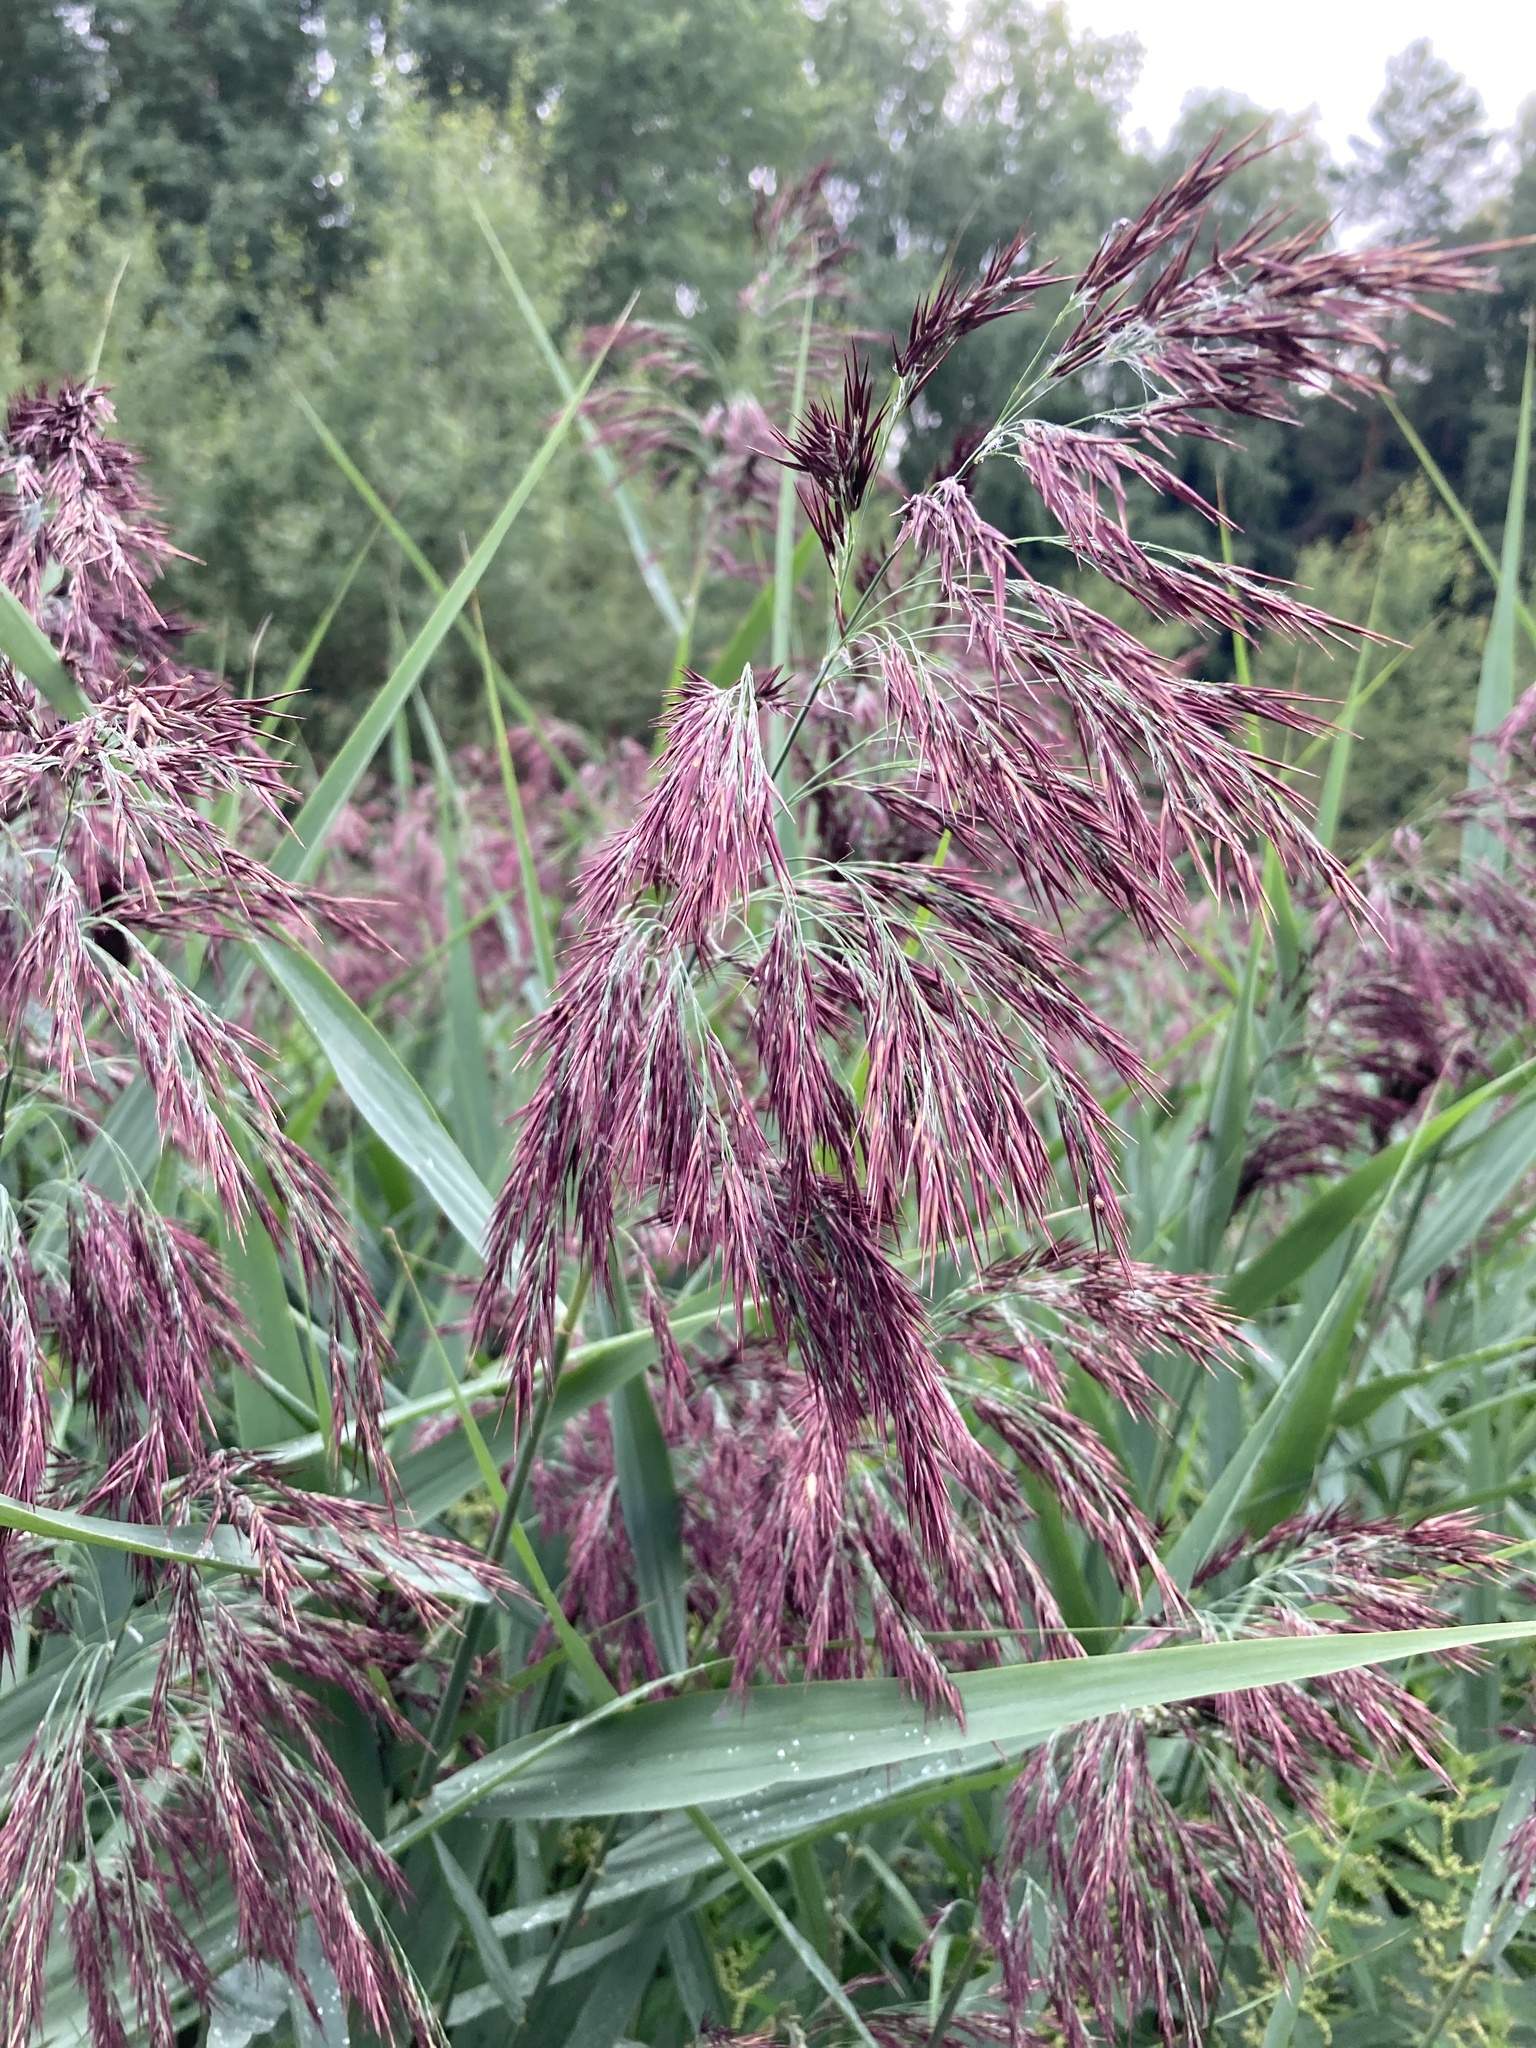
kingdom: Plantae
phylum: Tracheophyta
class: Liliopsida
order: Poales
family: Poaceae
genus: Phragmites
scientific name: Phragmites australis
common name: Common reed
